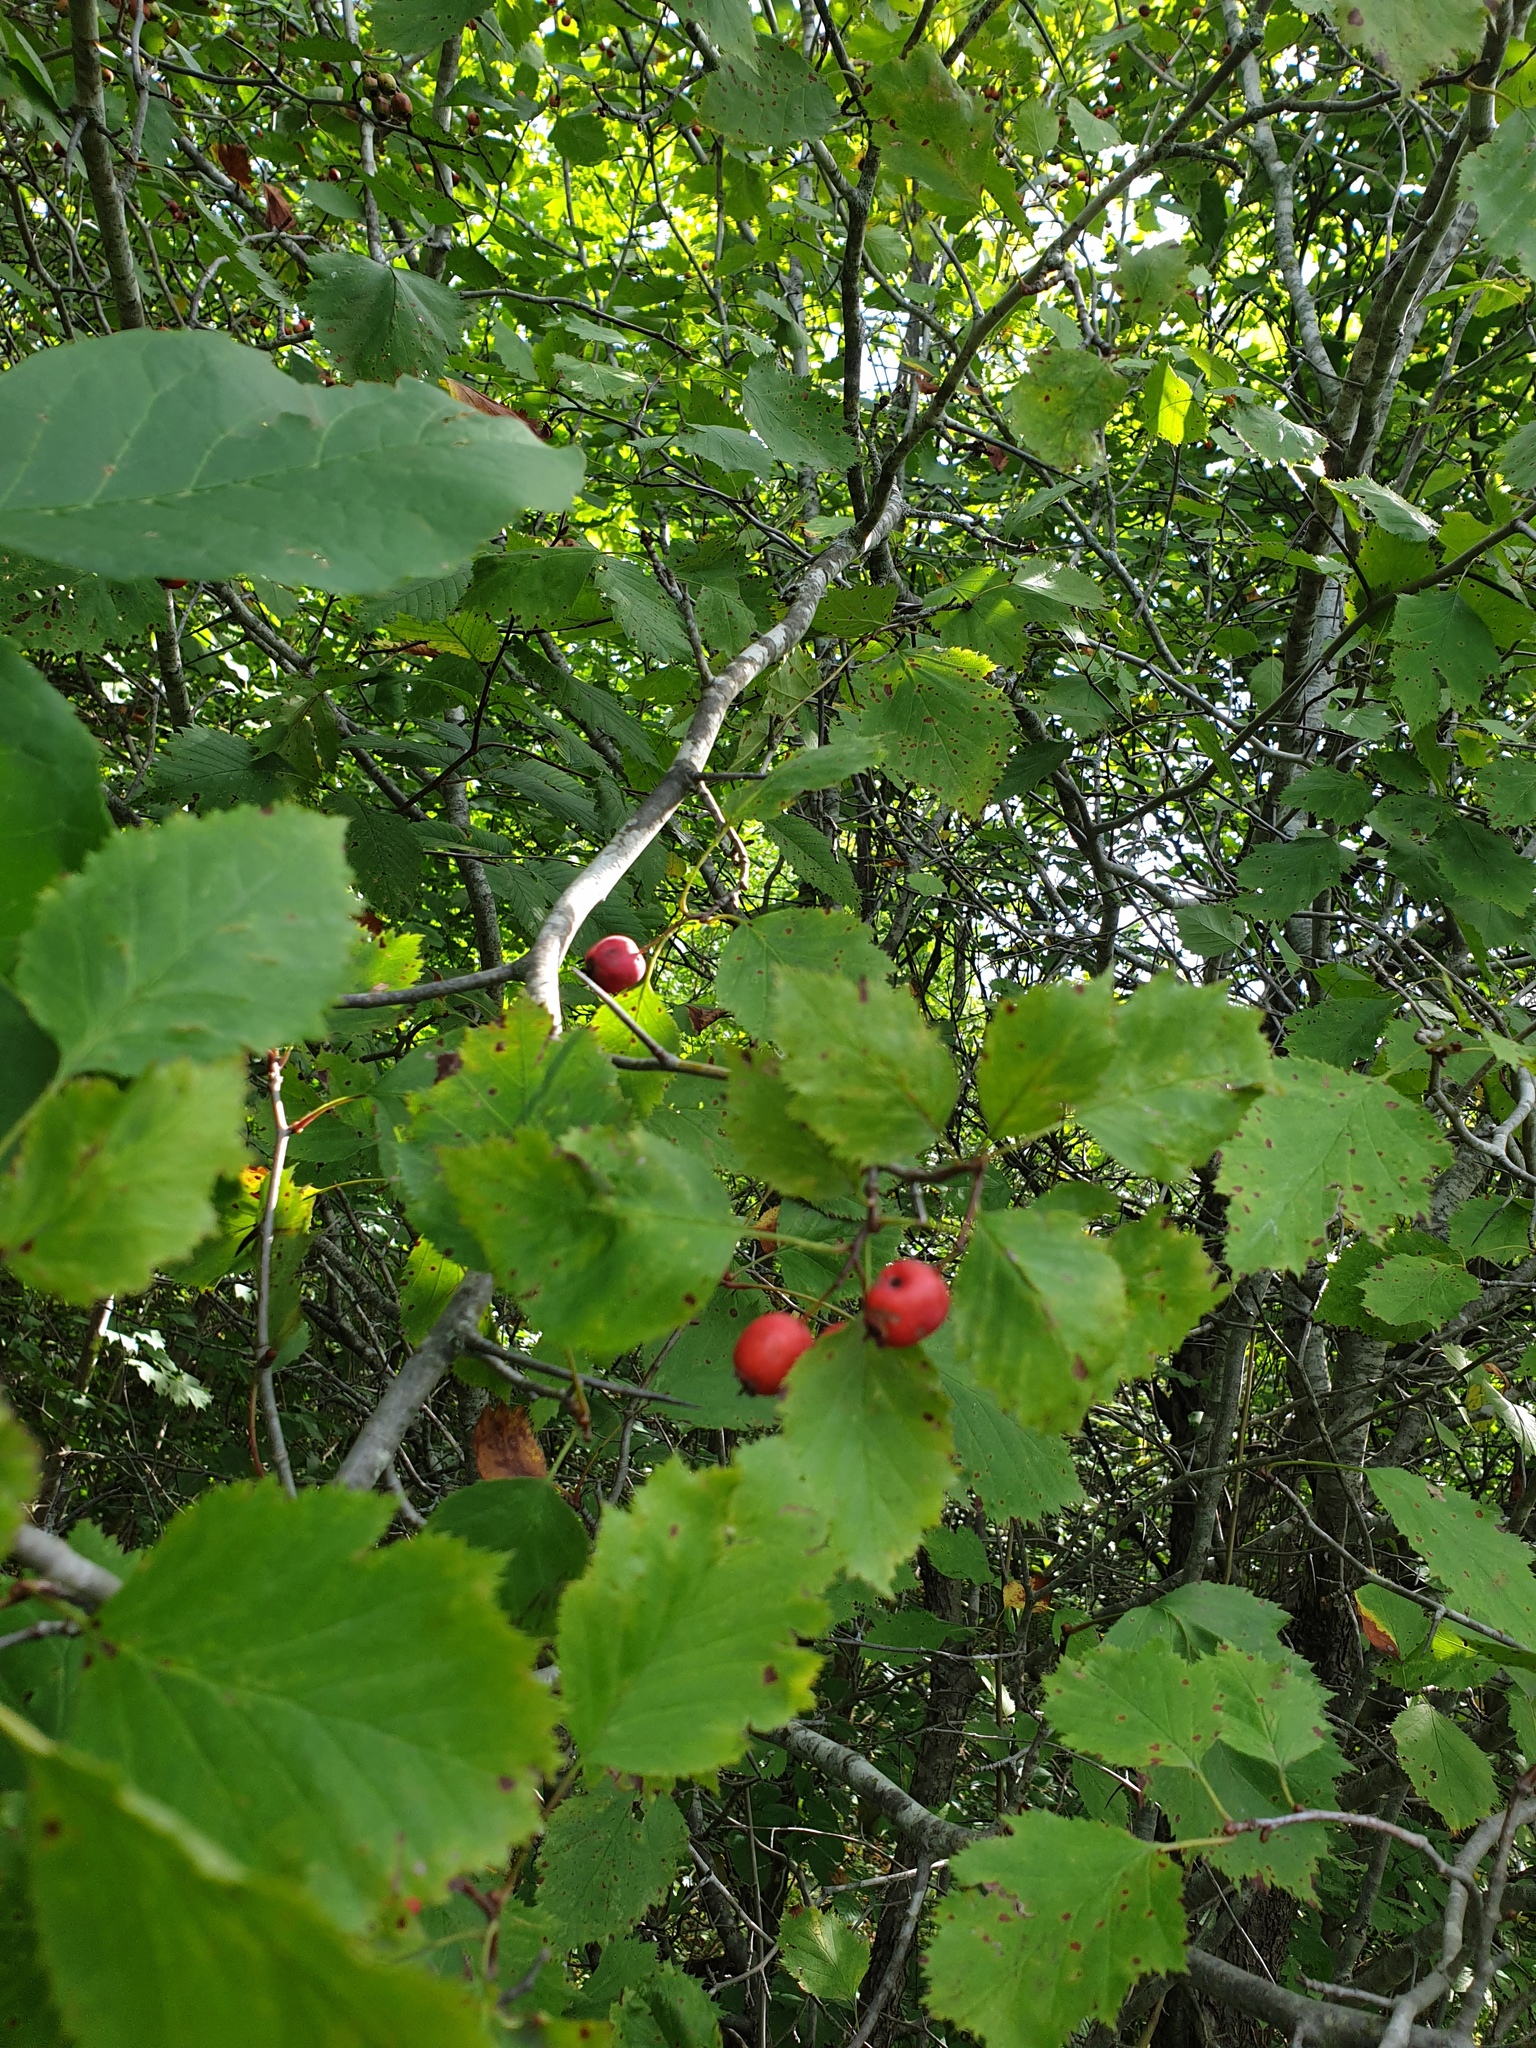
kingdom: Plantae
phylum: Tracheophyta
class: Magnoliopsida
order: Rosales
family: Rosaceae
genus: Crataegus
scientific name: Crataegus holmesiana
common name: Holmes' hawthorn
